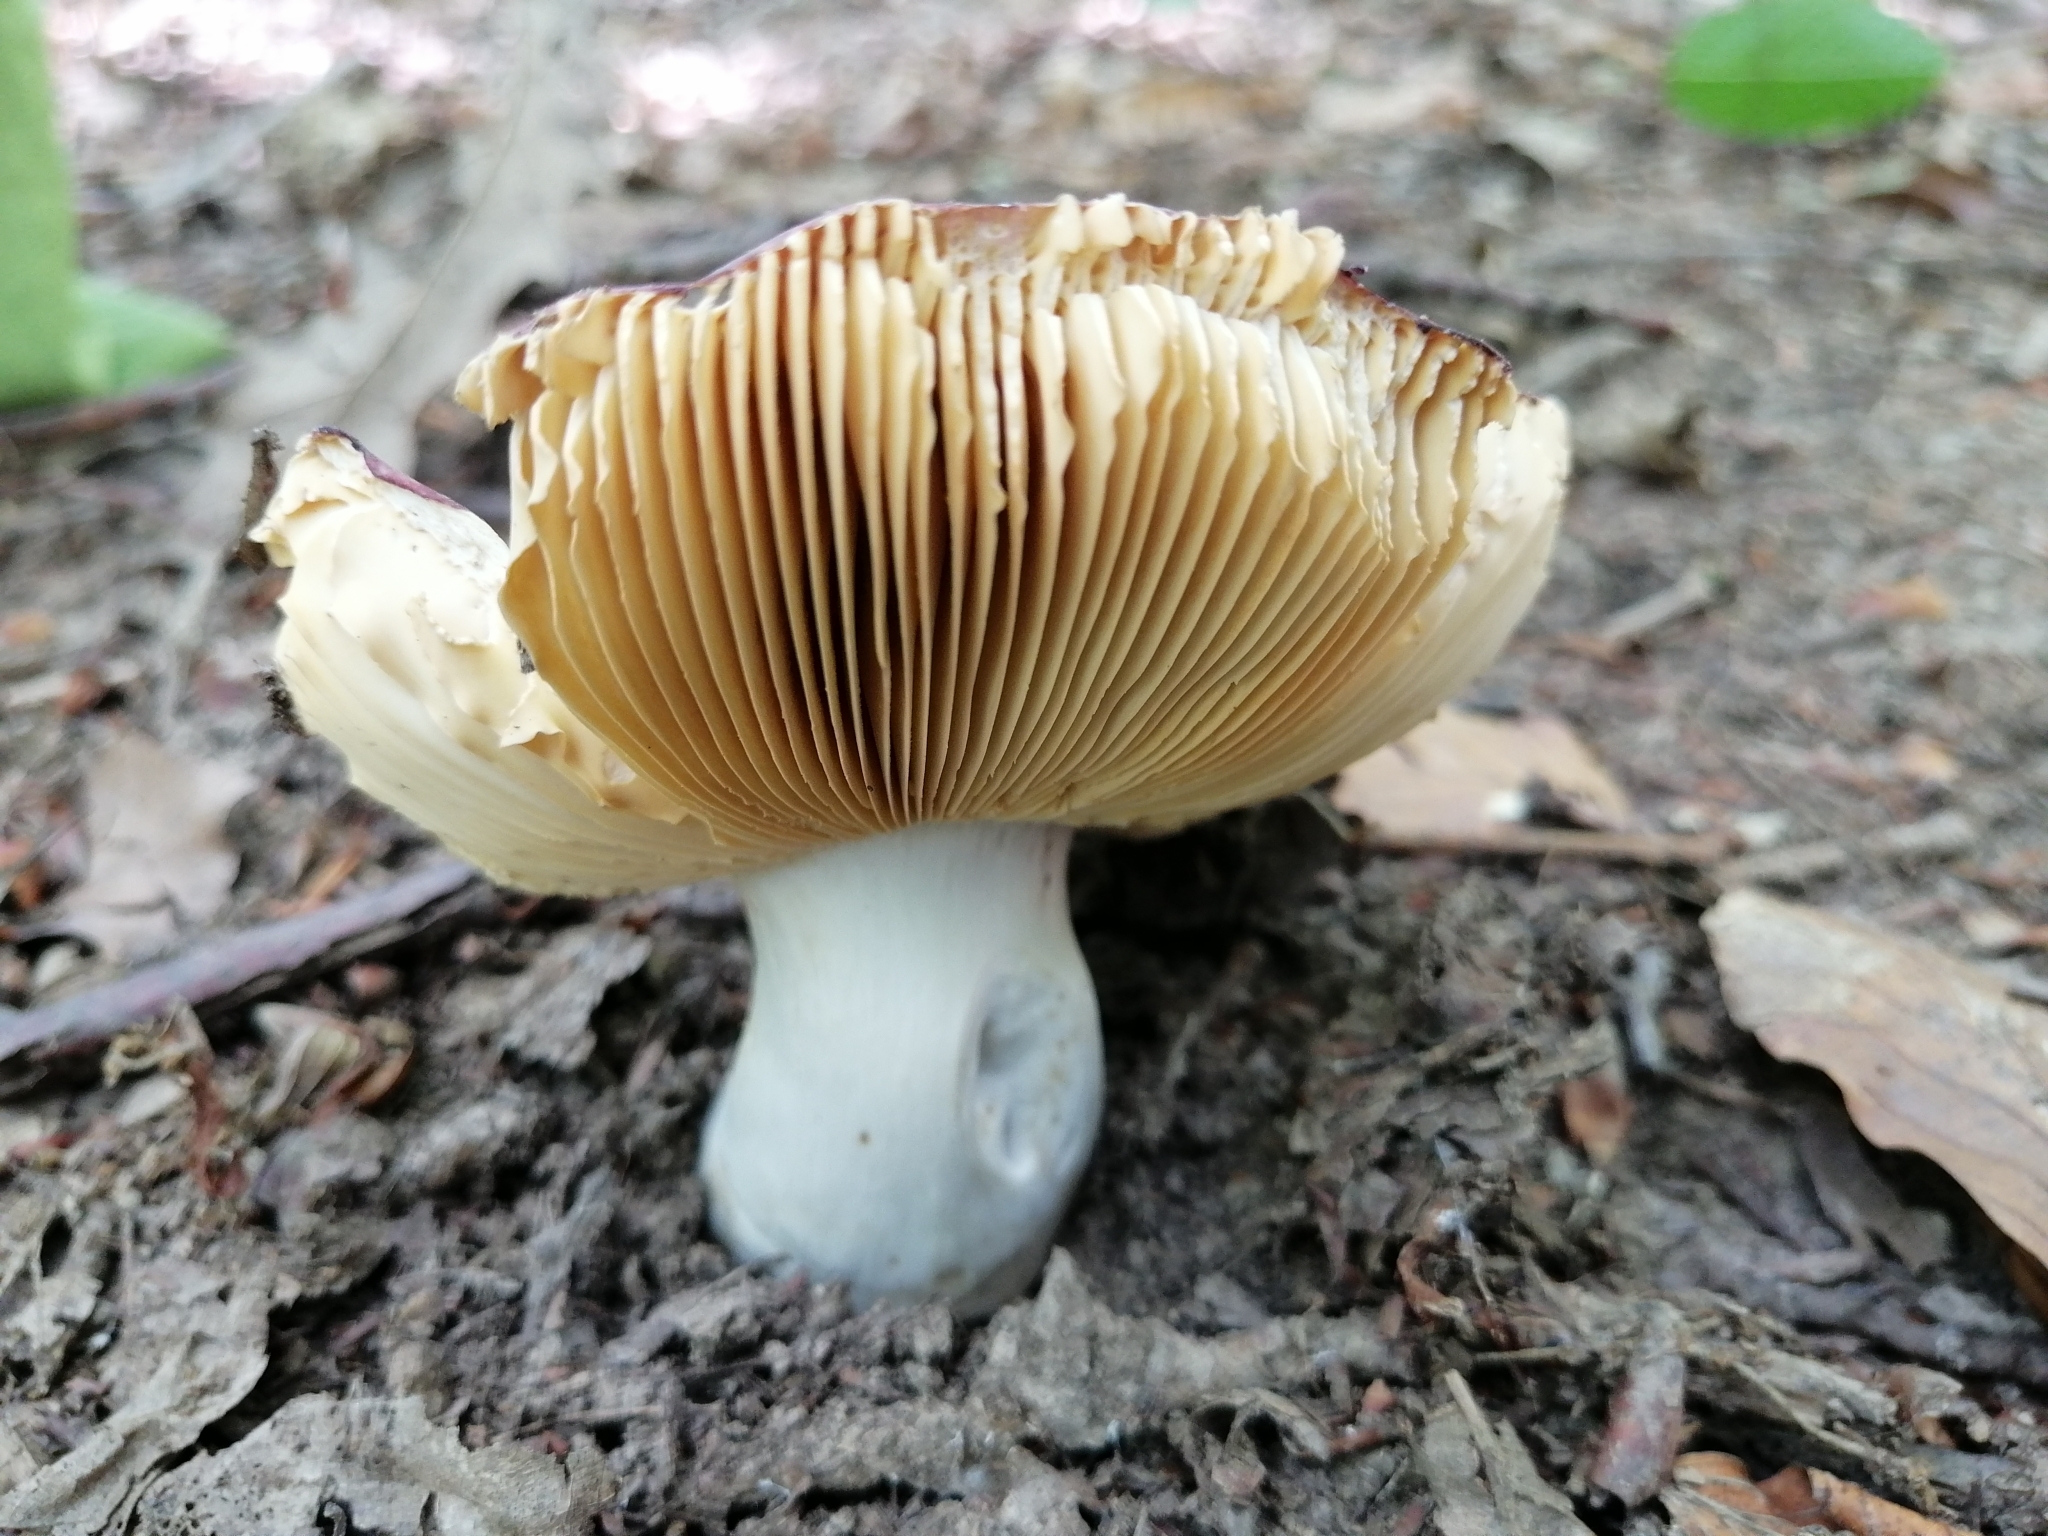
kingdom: Fungi
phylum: Basidiomycota
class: Agaricomycetes
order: Russulales
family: Russulaceae
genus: Russula
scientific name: Russula alutacea
